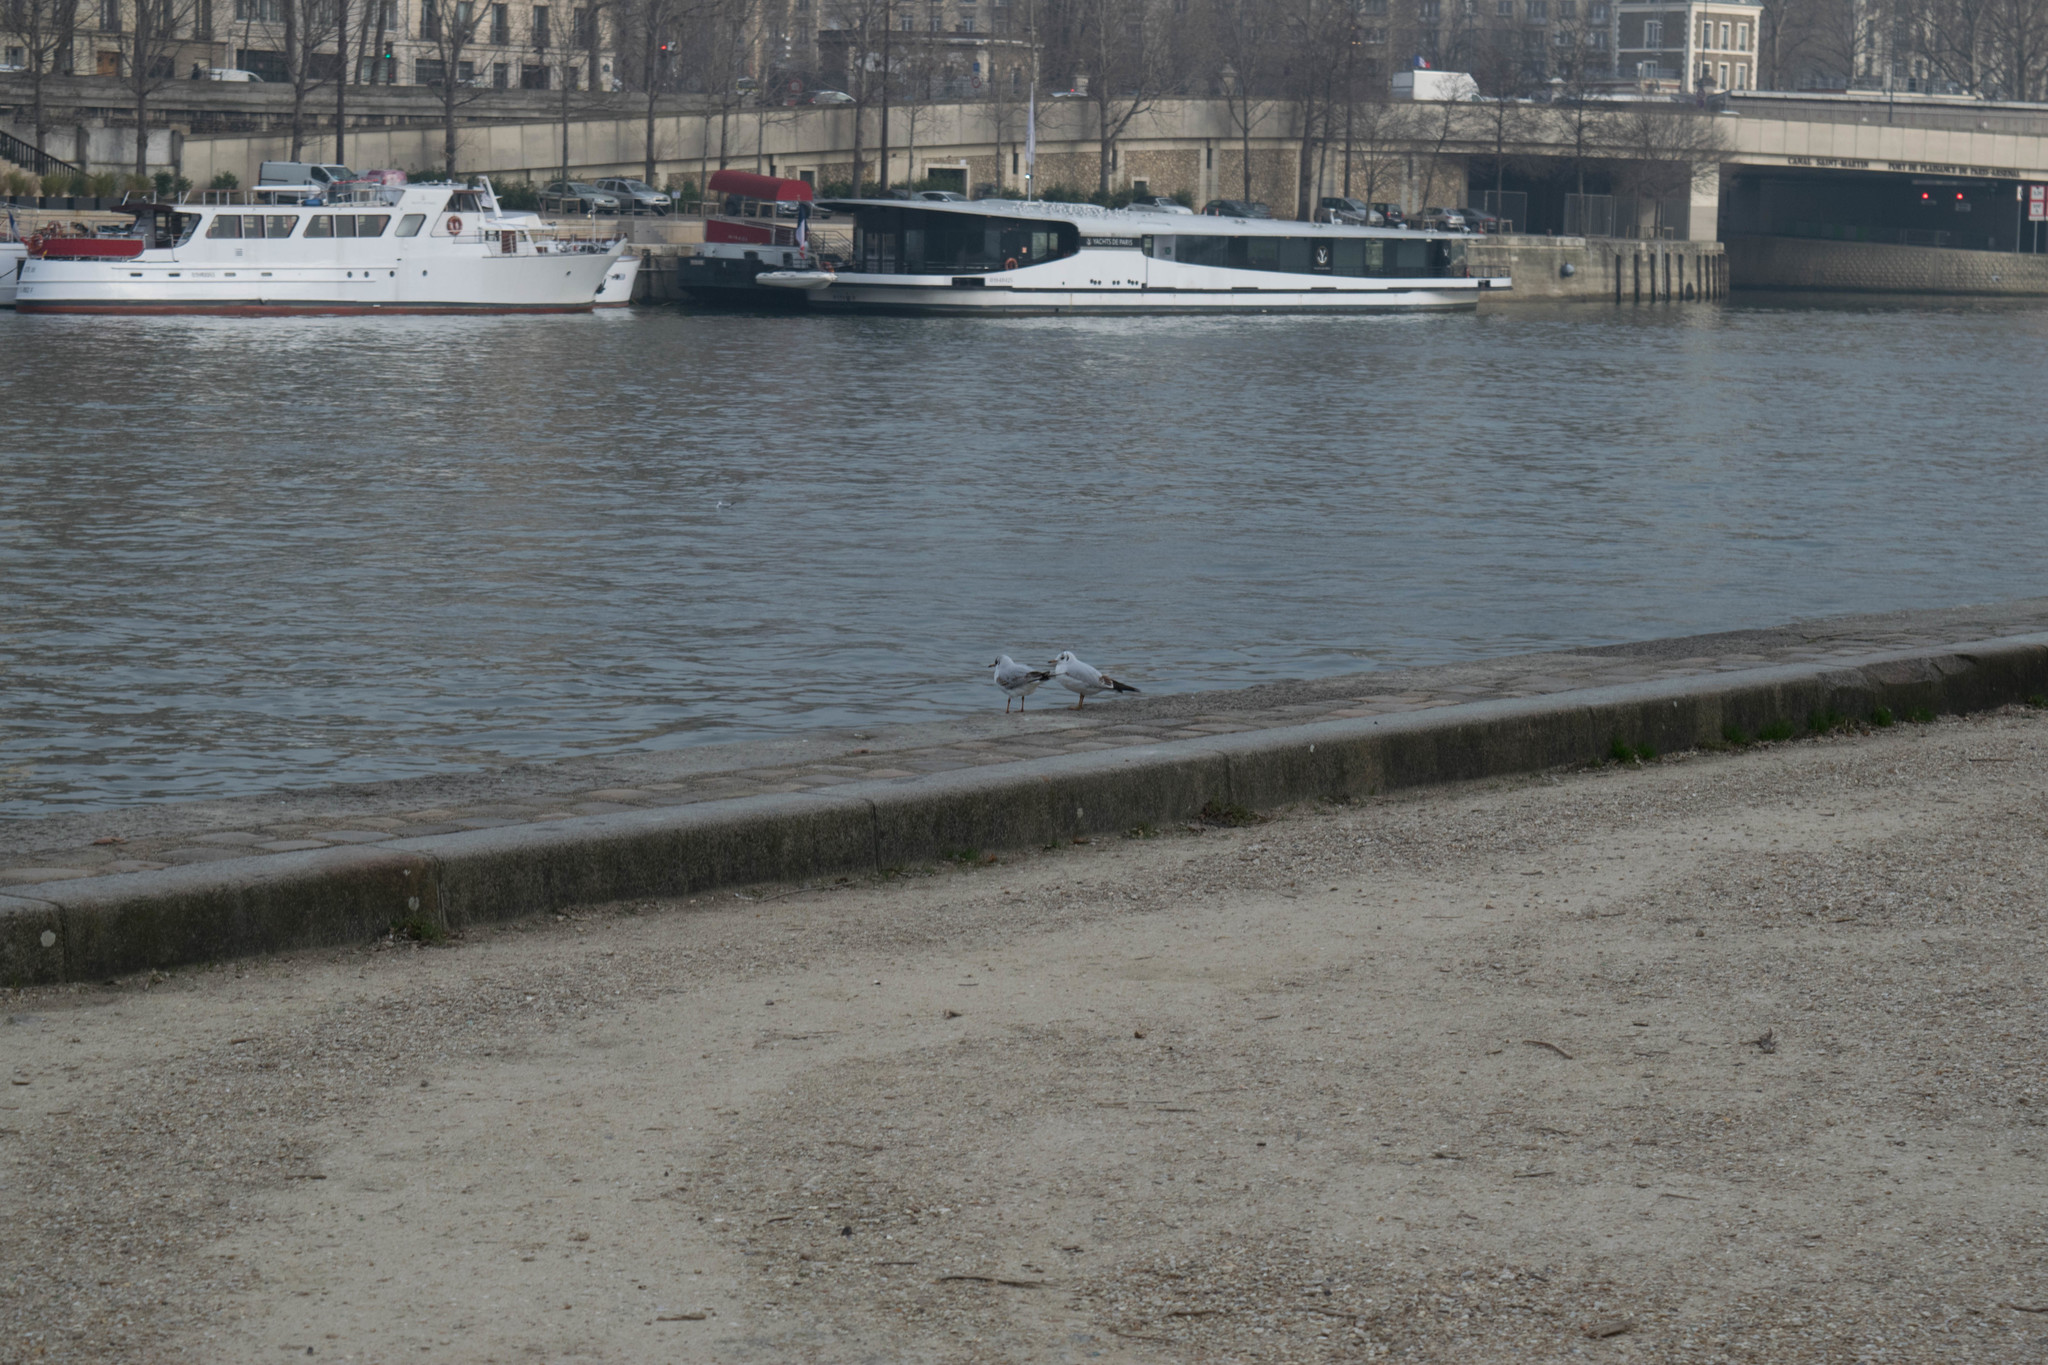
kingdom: Animalia
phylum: Chordata
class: Aves
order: Charadriiformes
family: Laridae
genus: Chroicocephalus
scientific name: Chroicocephalus ridibundus
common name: Black-headed gull
